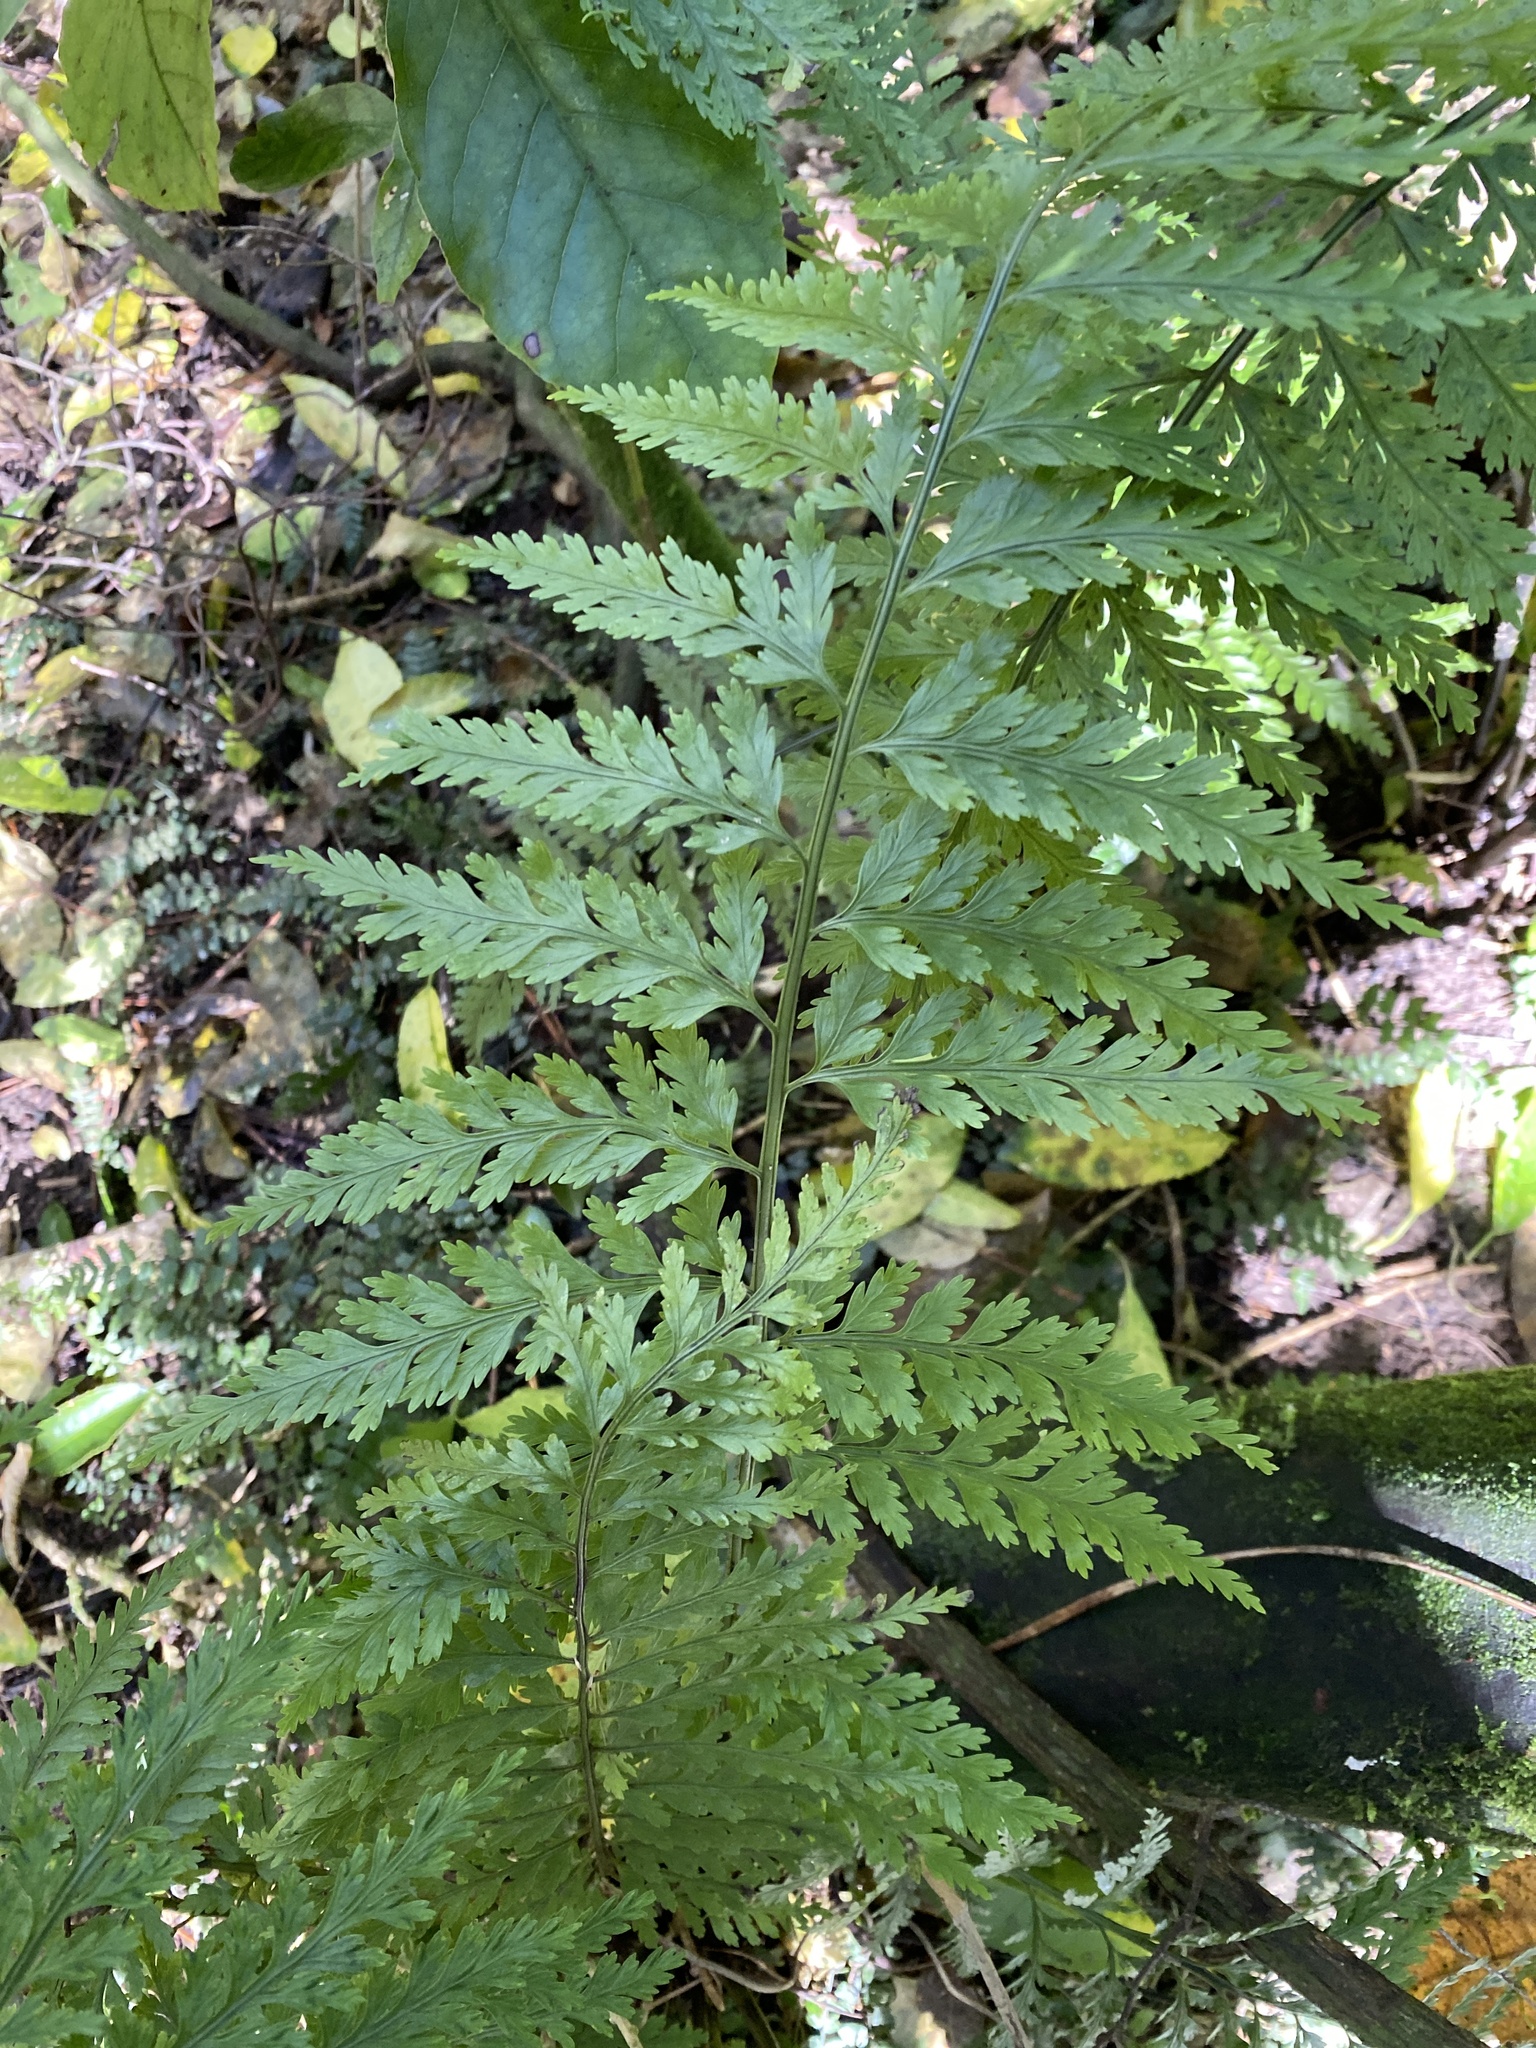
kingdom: Plantae
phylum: Tracheophyta
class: Polypodiopsida
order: Polypodiales
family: Aspleniaceae
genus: Asplenium
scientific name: Asplenium
